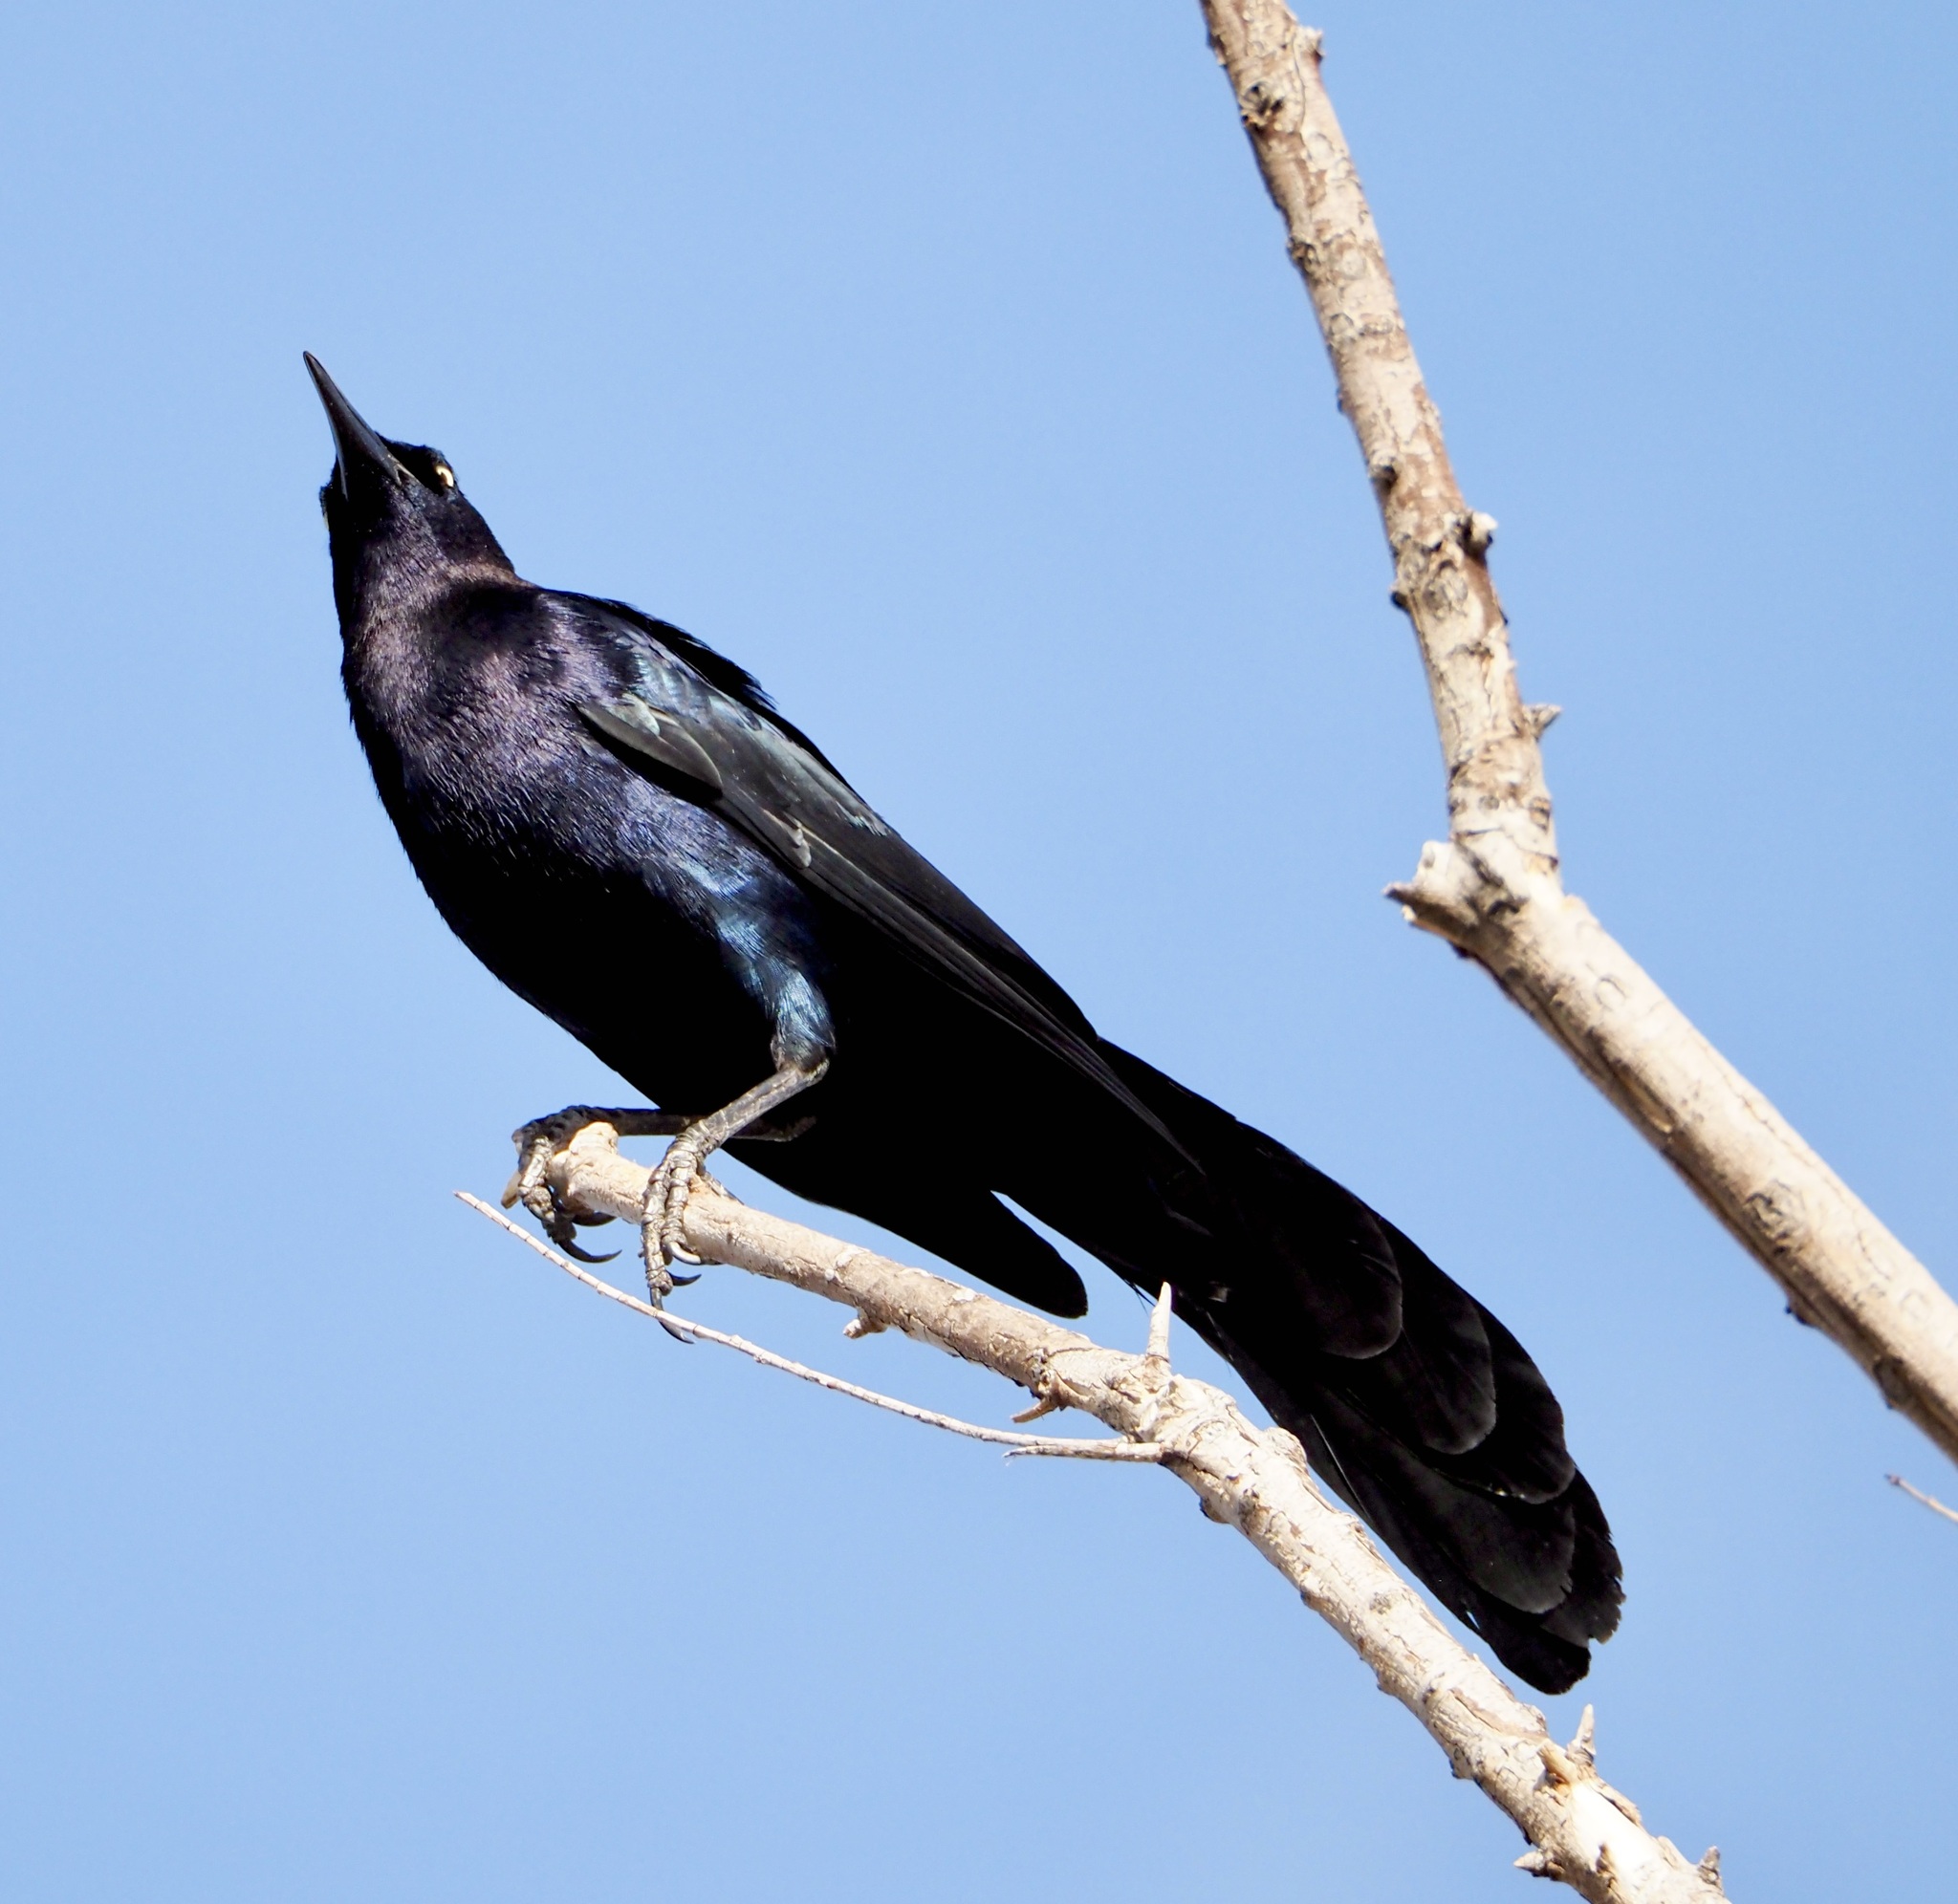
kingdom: Animalia
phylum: Chordata
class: Aves
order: Passeriformes
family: Icteridae
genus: Quiscalus
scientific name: Quiscalus mexicanus
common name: Great-tailed grackle
